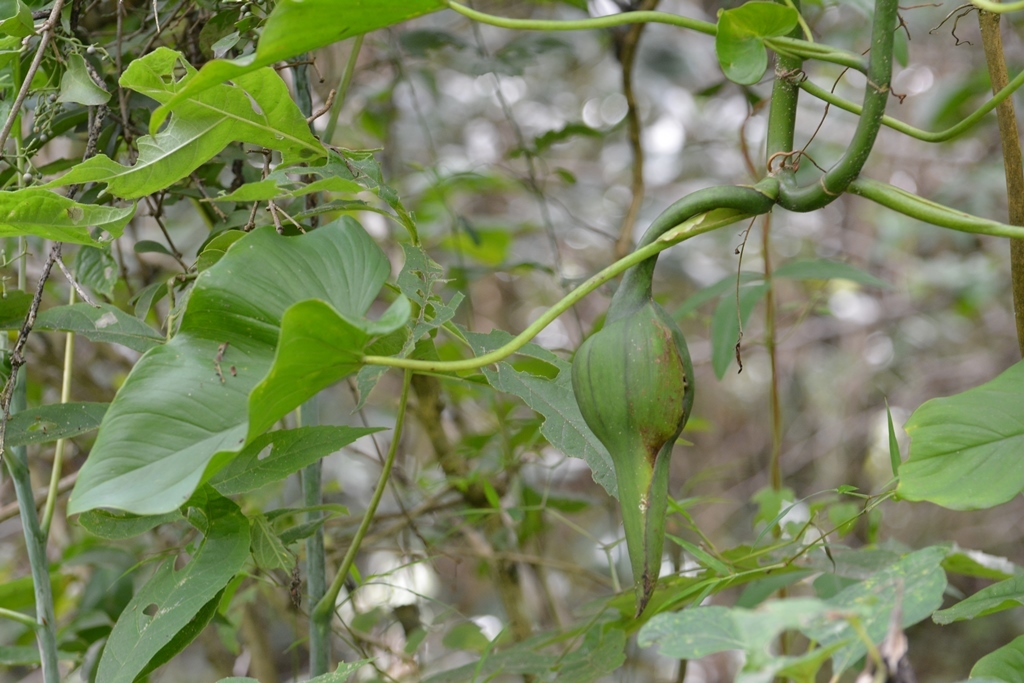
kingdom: Plantae
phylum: Tracheophyta
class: Liliopsida
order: Alismatales
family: Araceae
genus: Philodendron
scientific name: Philodendron purulhense
